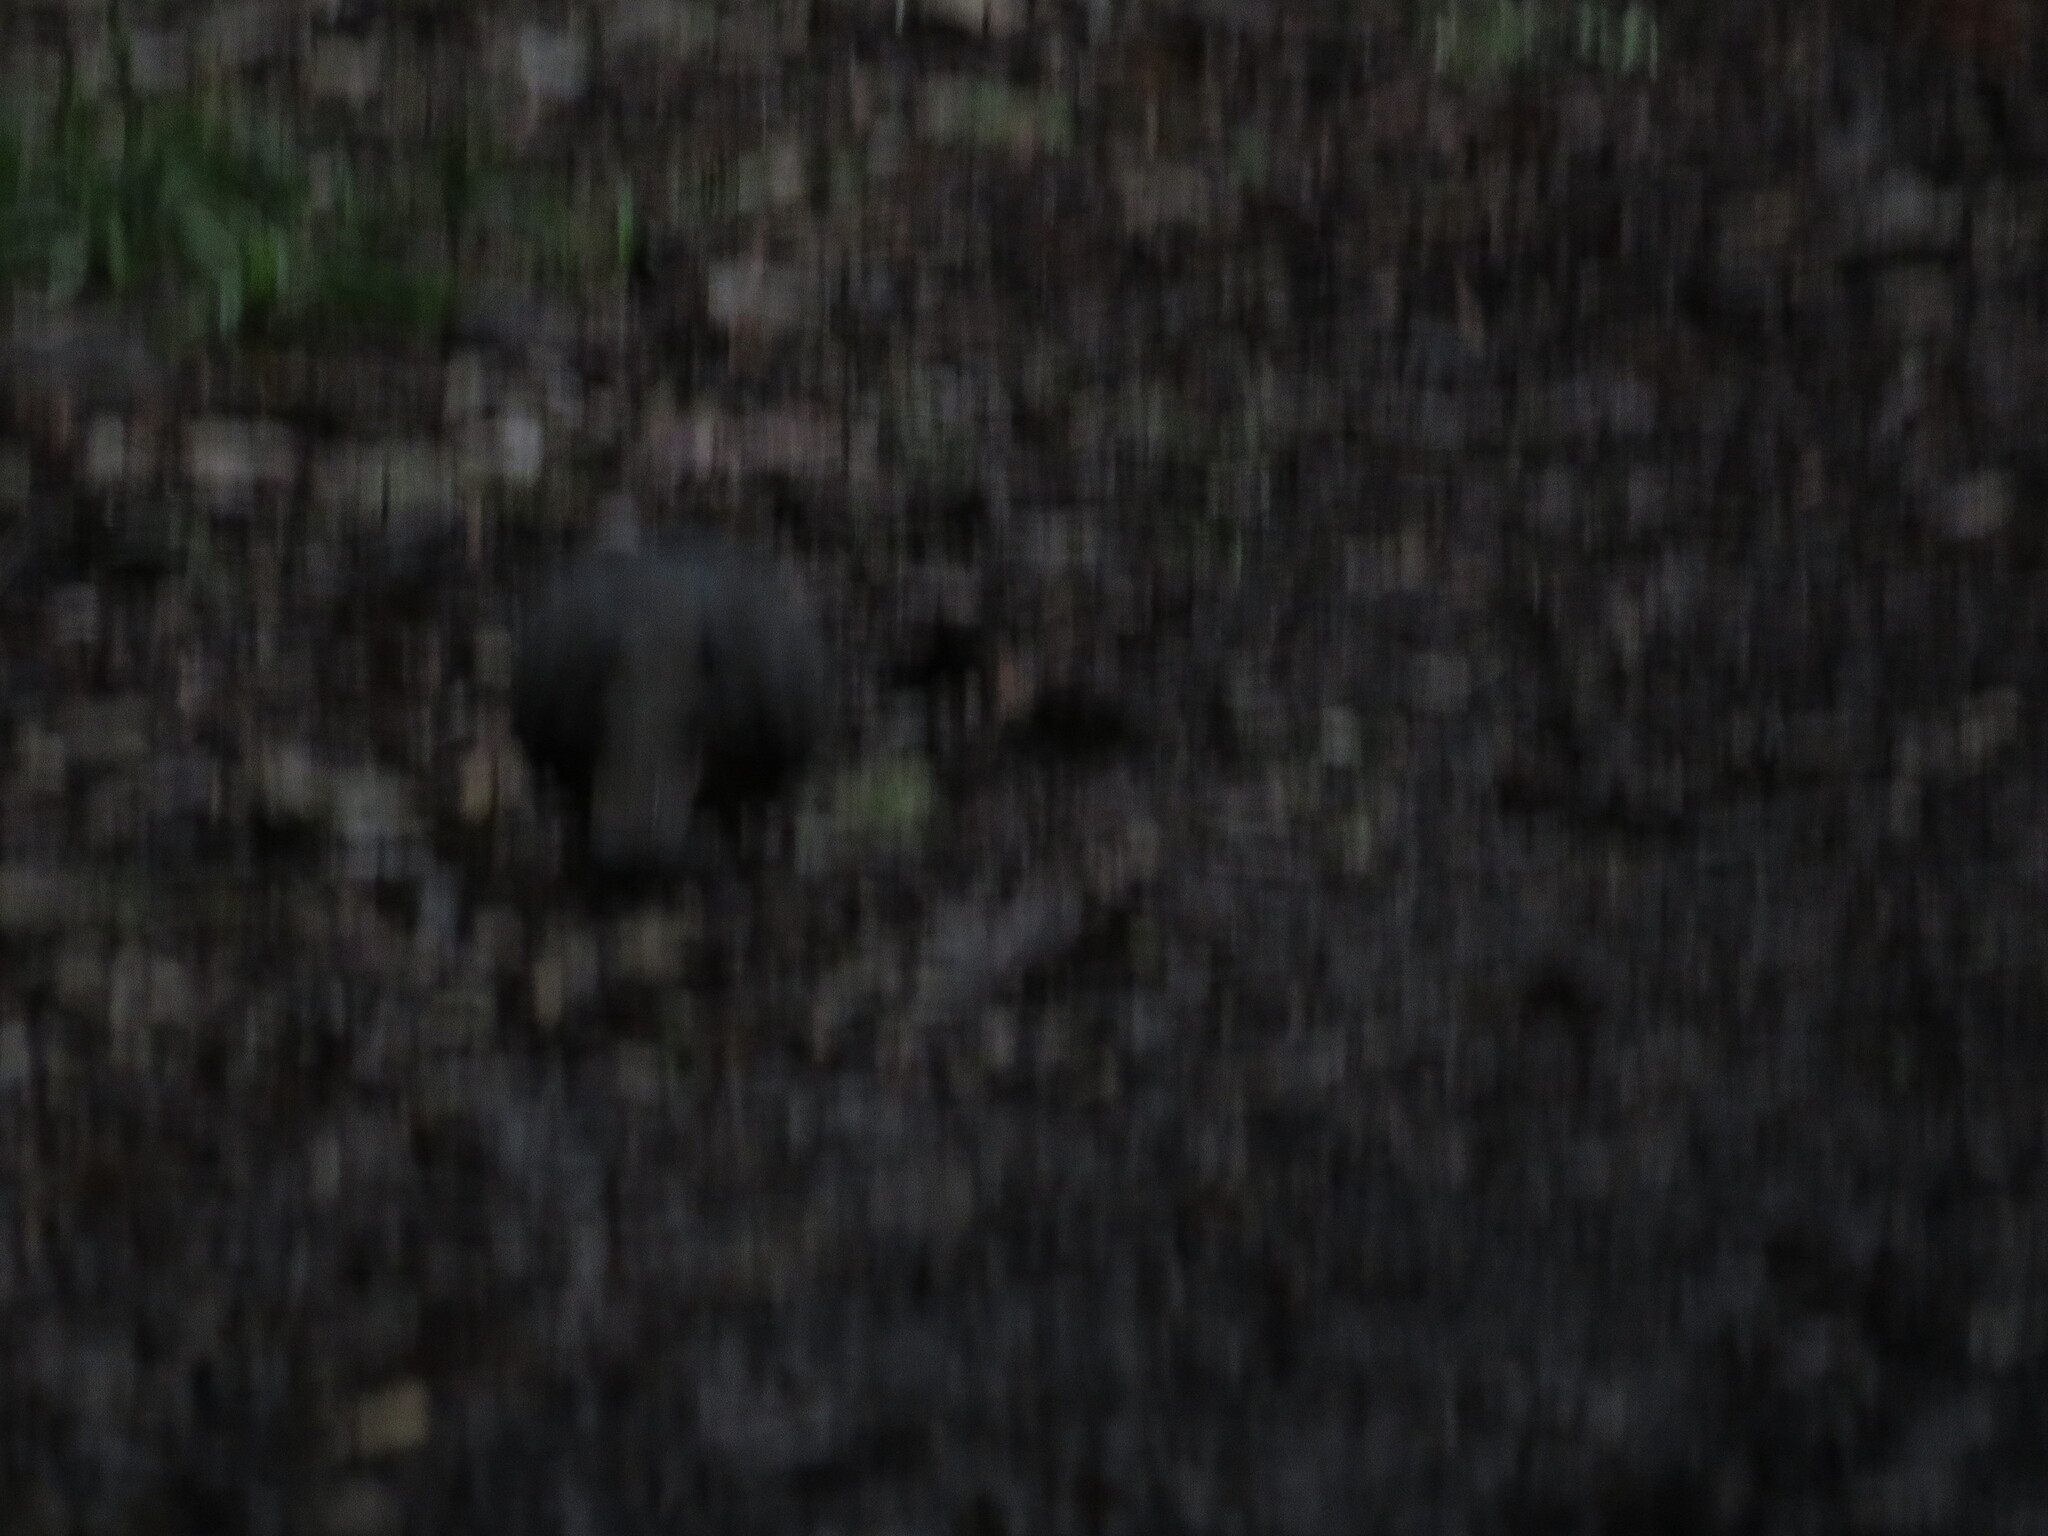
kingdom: Animalia
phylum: Chordata
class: Aves
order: Columbiformes
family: Columbidae
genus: Columba
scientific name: Columba larvata
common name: Lemon dove
